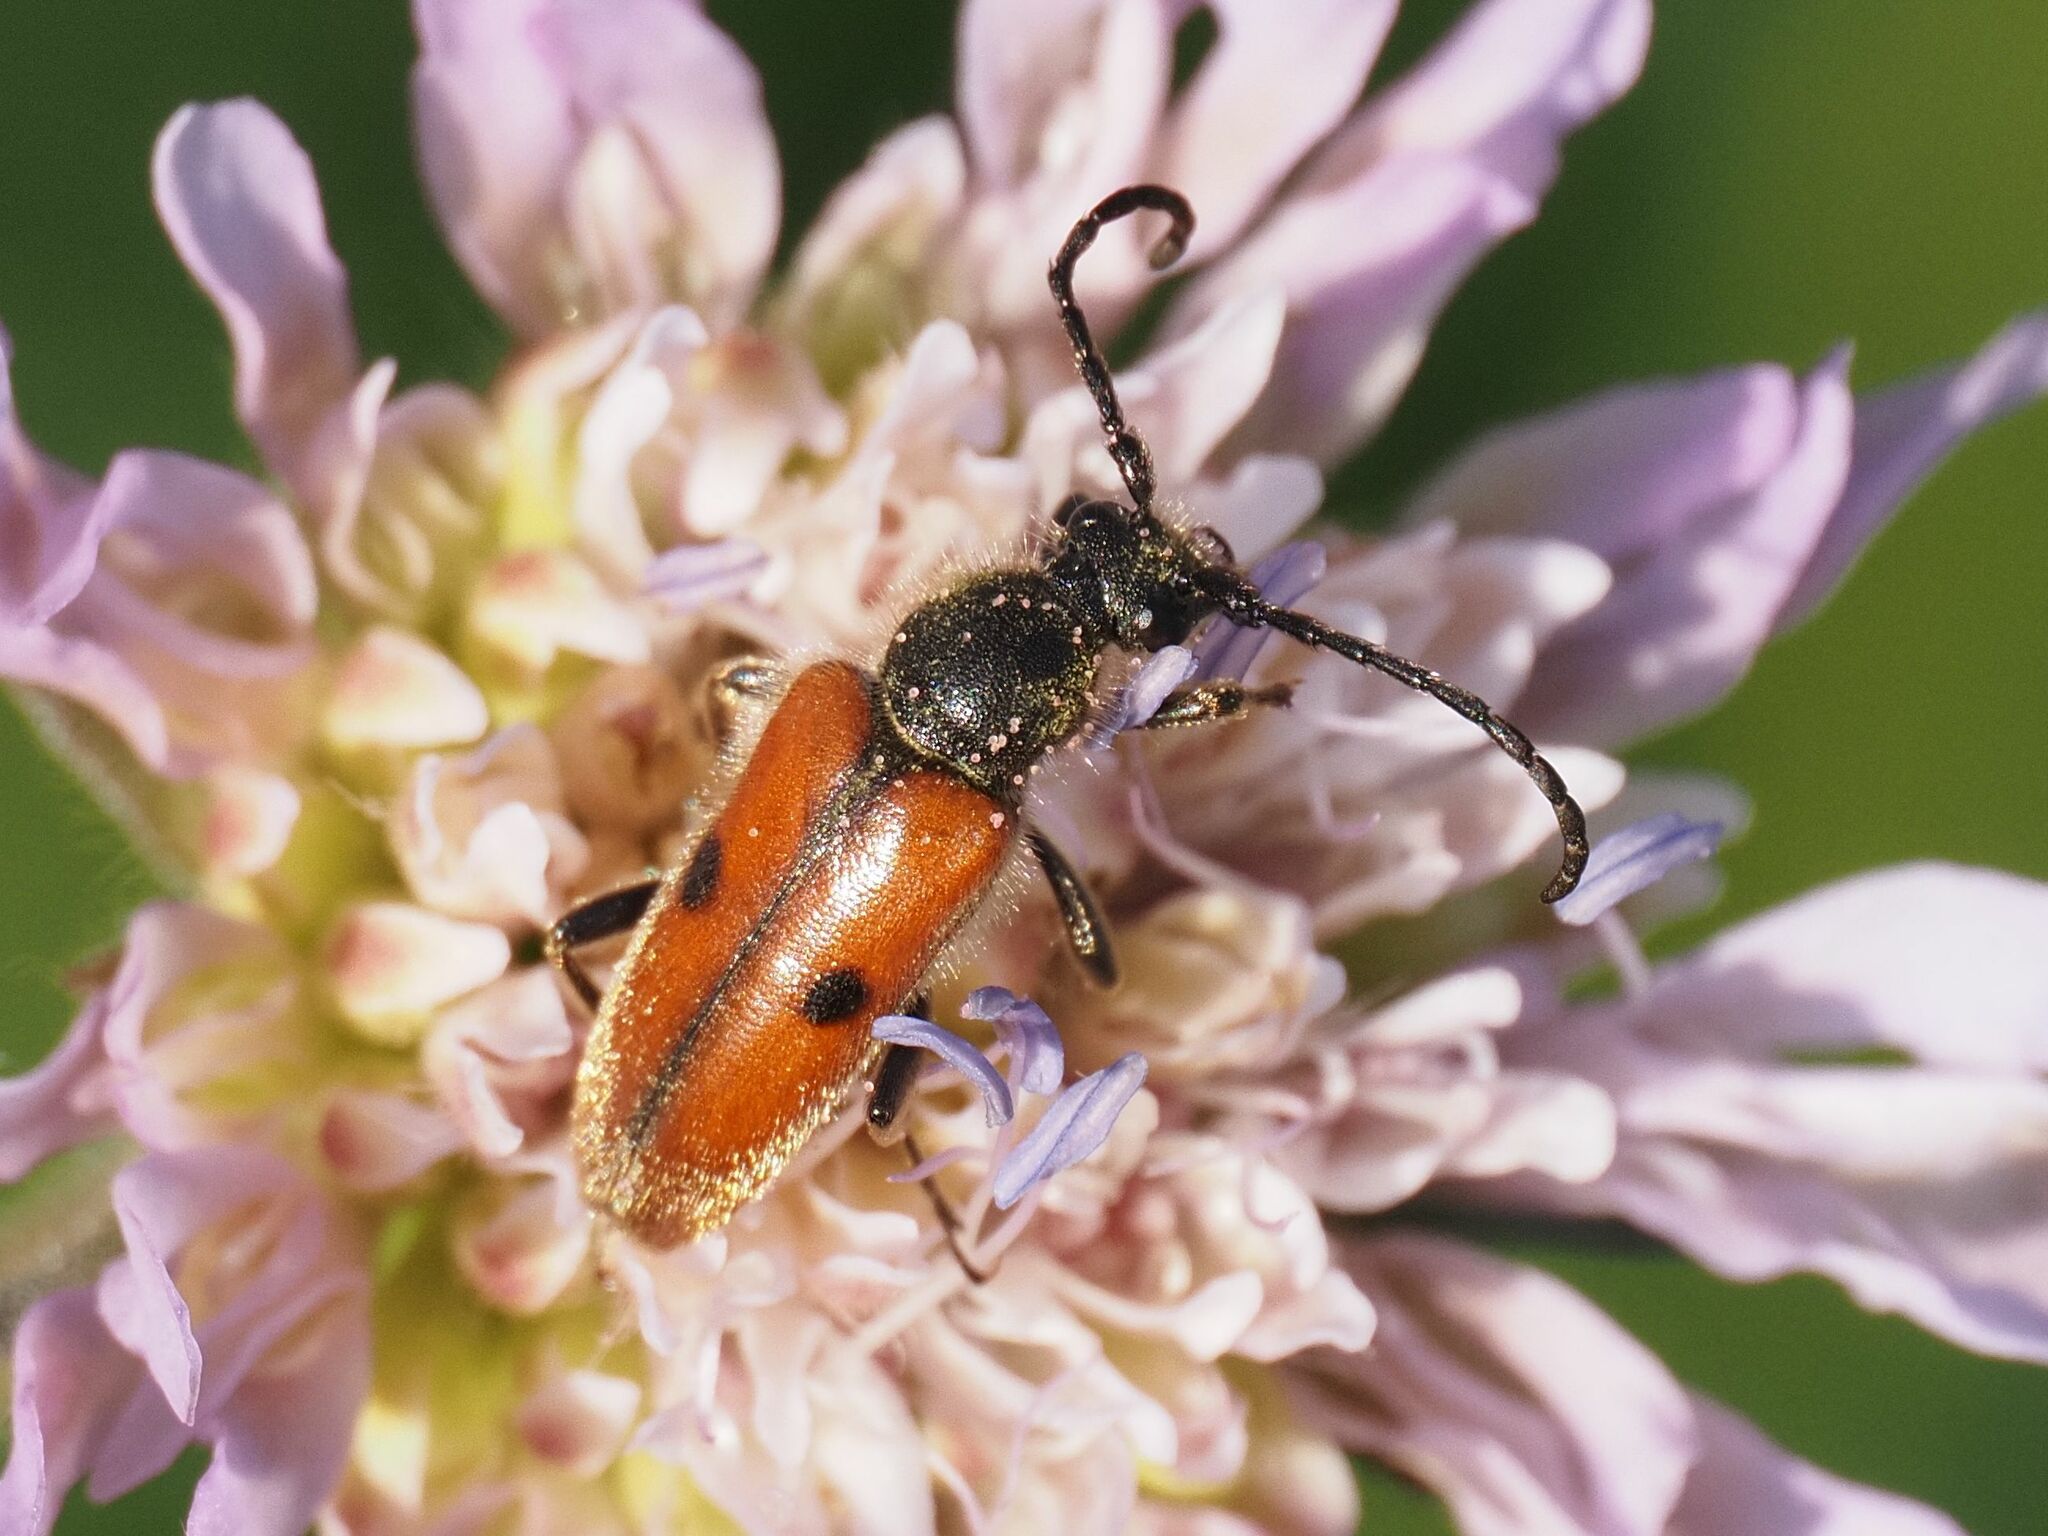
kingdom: Animalia
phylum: Arthropoda
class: Insecta
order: Coleoptera
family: Cerambycidae
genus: Vadonia
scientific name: Vadonia unipunctata
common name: Long-horned beetle
